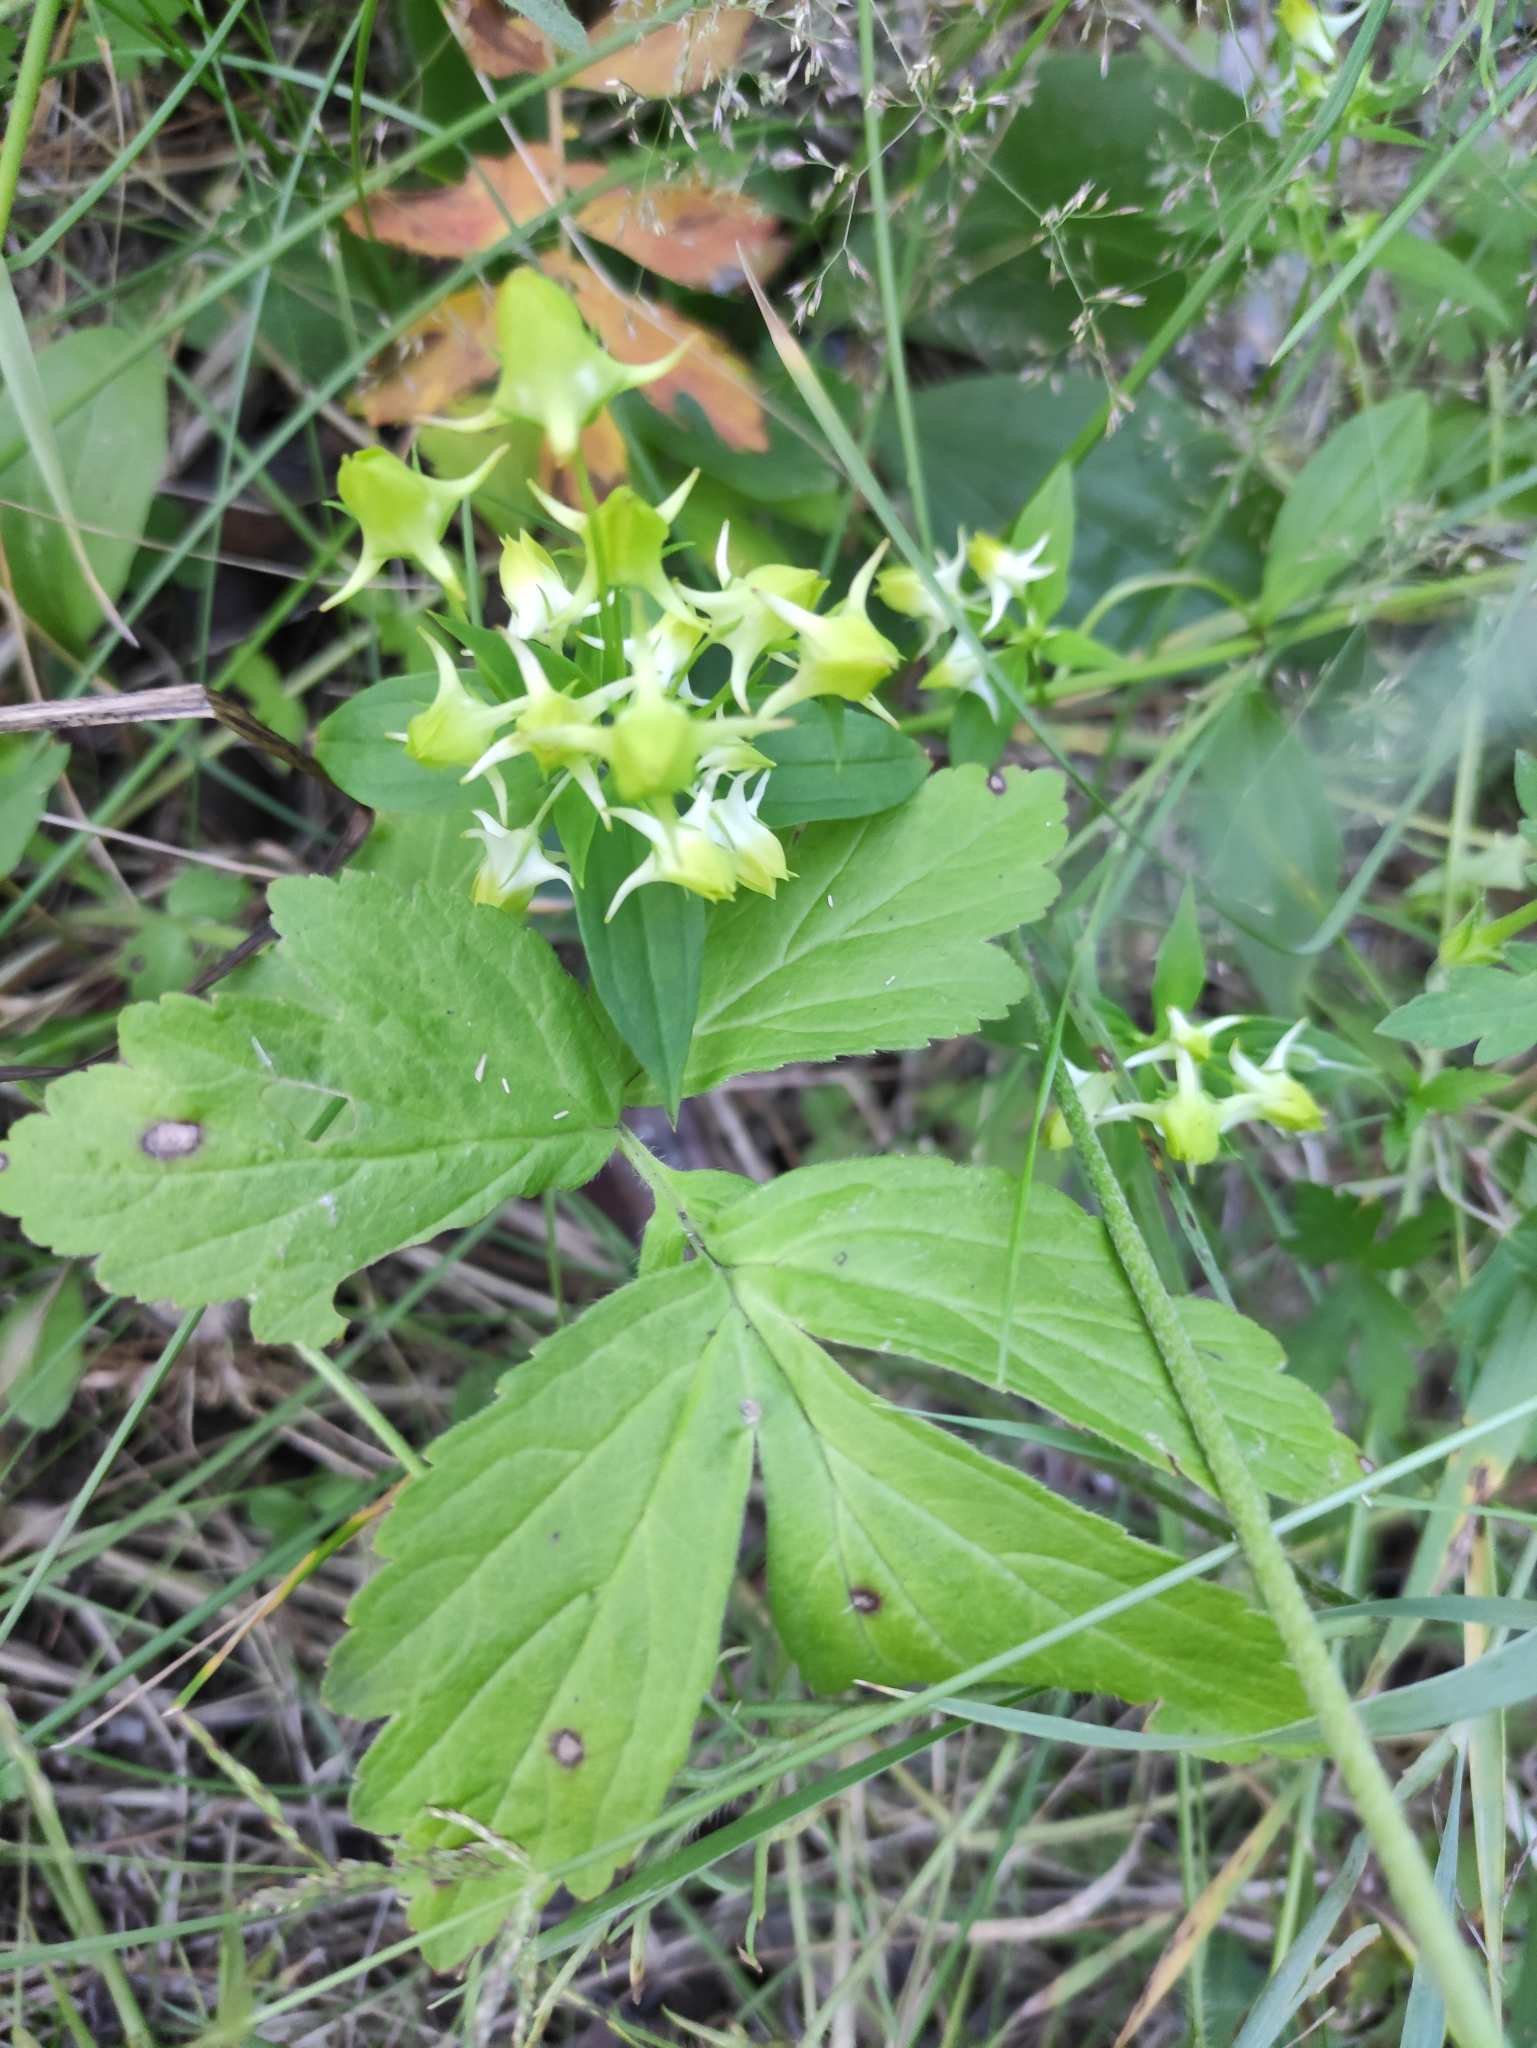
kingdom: Plantae
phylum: Tracheophyta
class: Magnoliopsida
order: Gentianales
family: Gentianaceae
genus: Halenia
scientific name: Halenia corniculata
